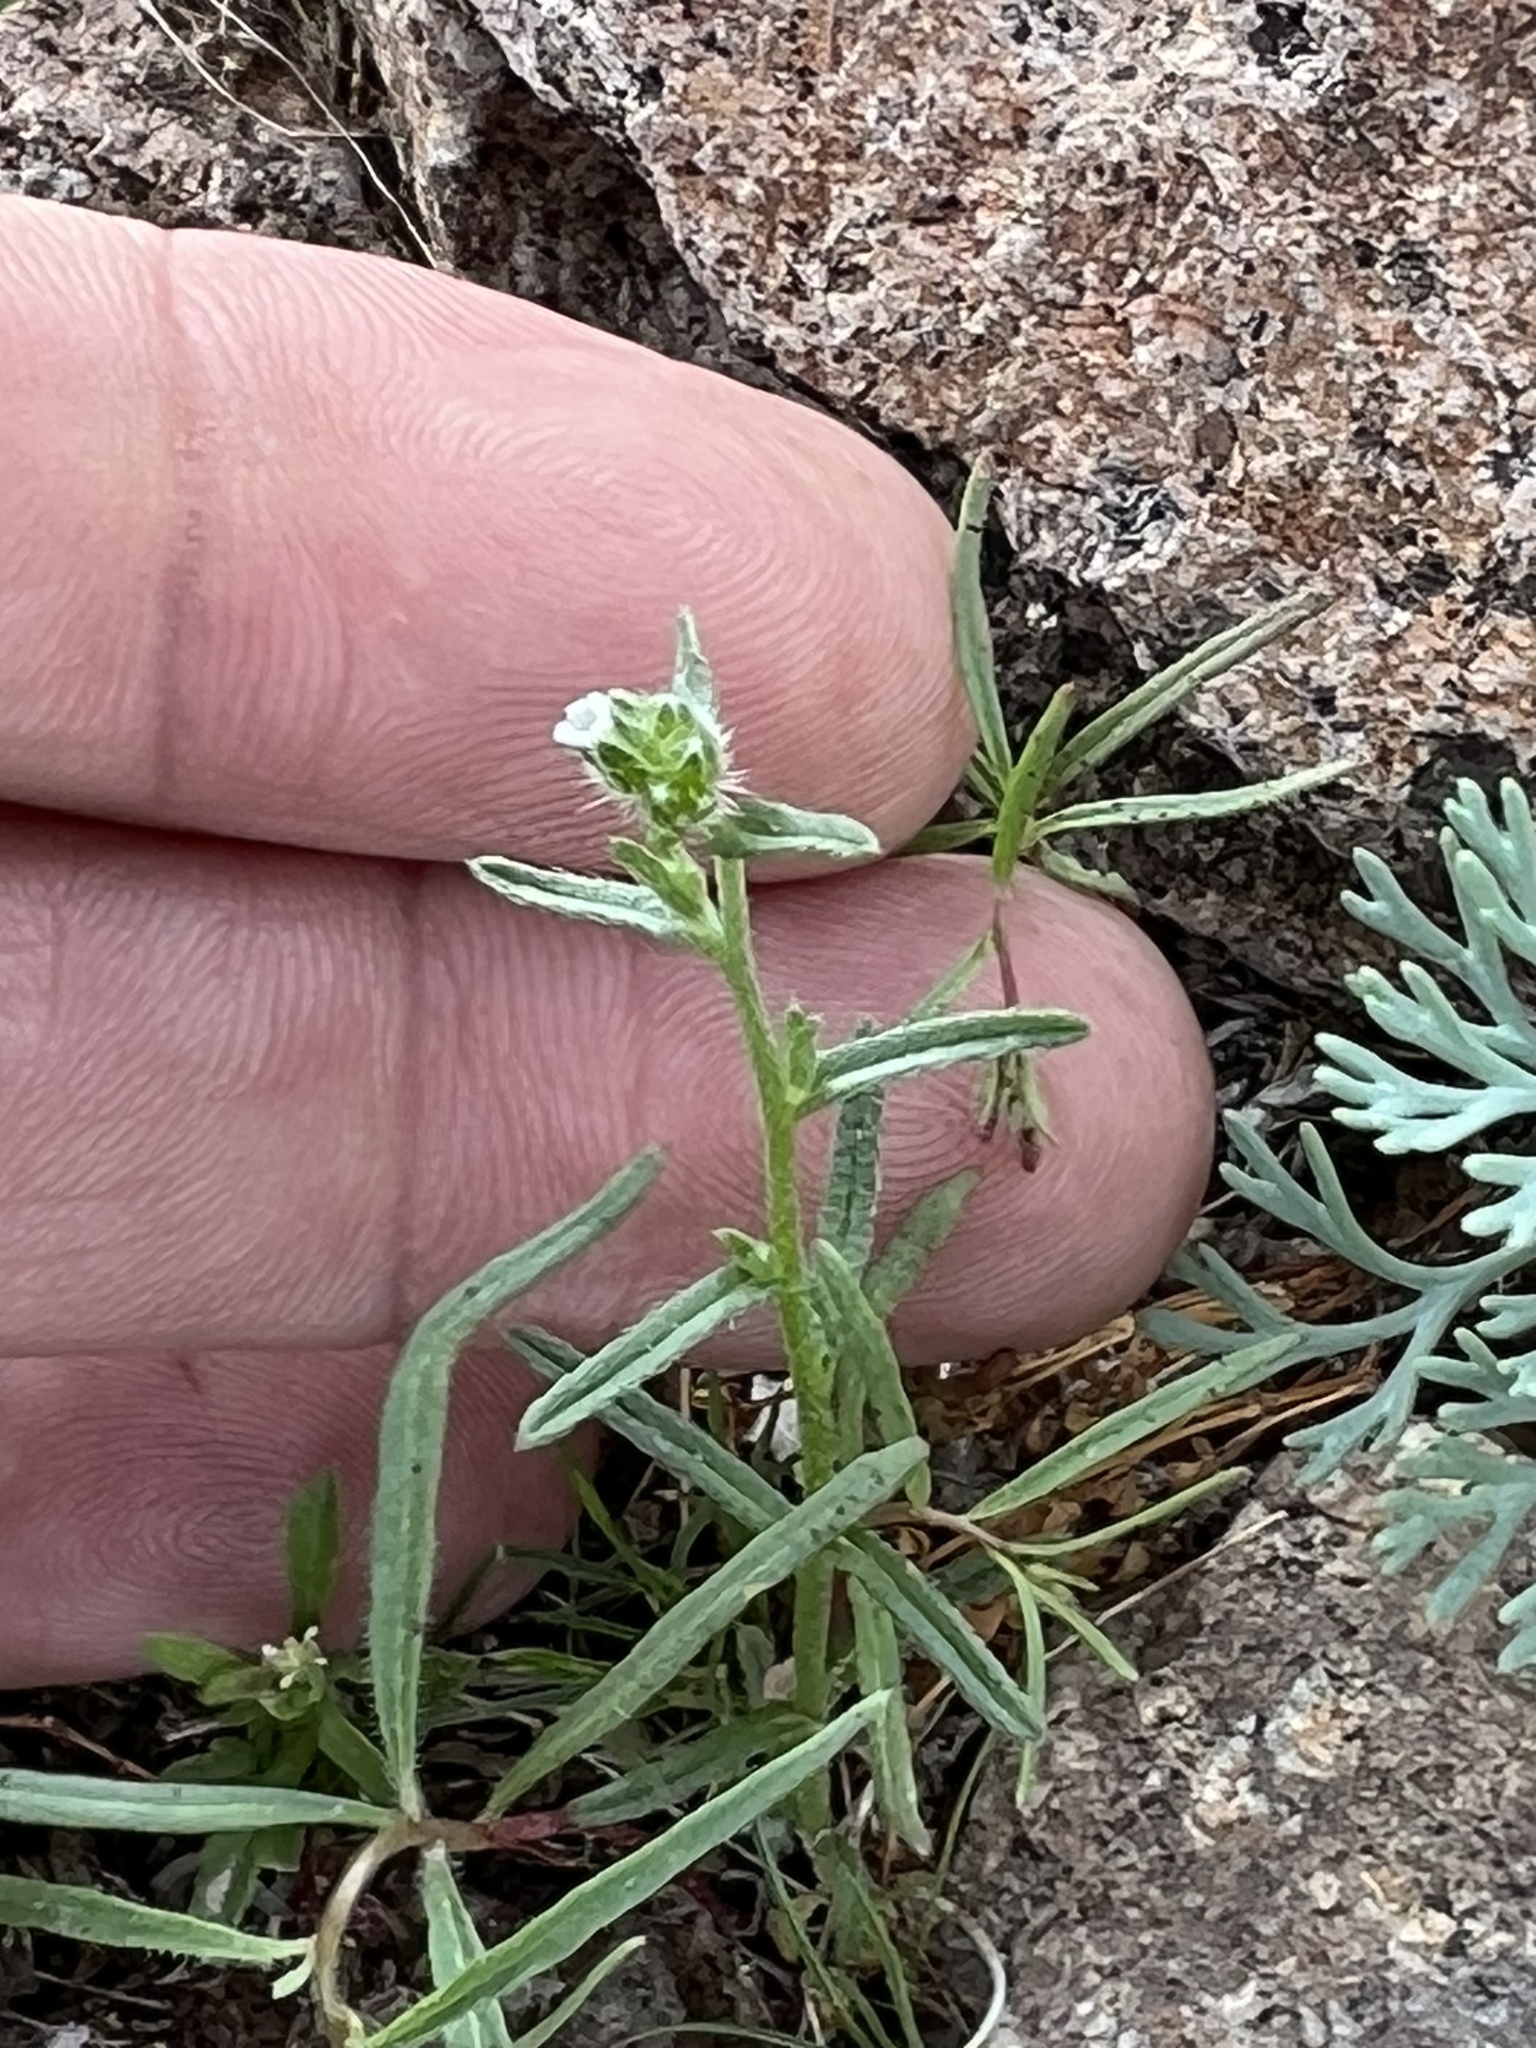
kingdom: Plantae
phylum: Tracheophyta
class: Magnoliopsida
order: Boraginales
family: Boraginaceae
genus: Cryptantha
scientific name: Cryptantha pterocarya
